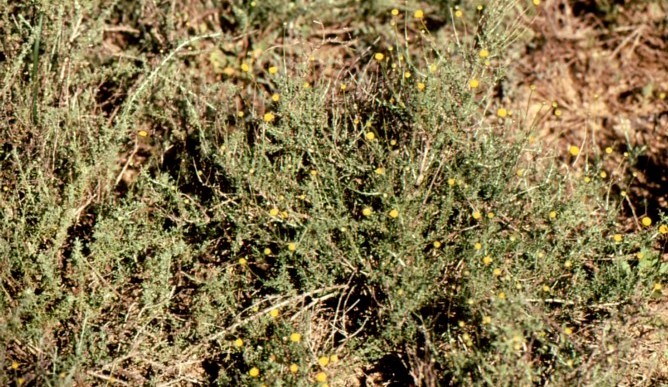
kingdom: Plantae
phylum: Tracheophyta
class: Magnoliopsida
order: Asterales
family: Asteraceae
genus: Pentzia
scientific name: Pentzia incana
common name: African sheepbush
